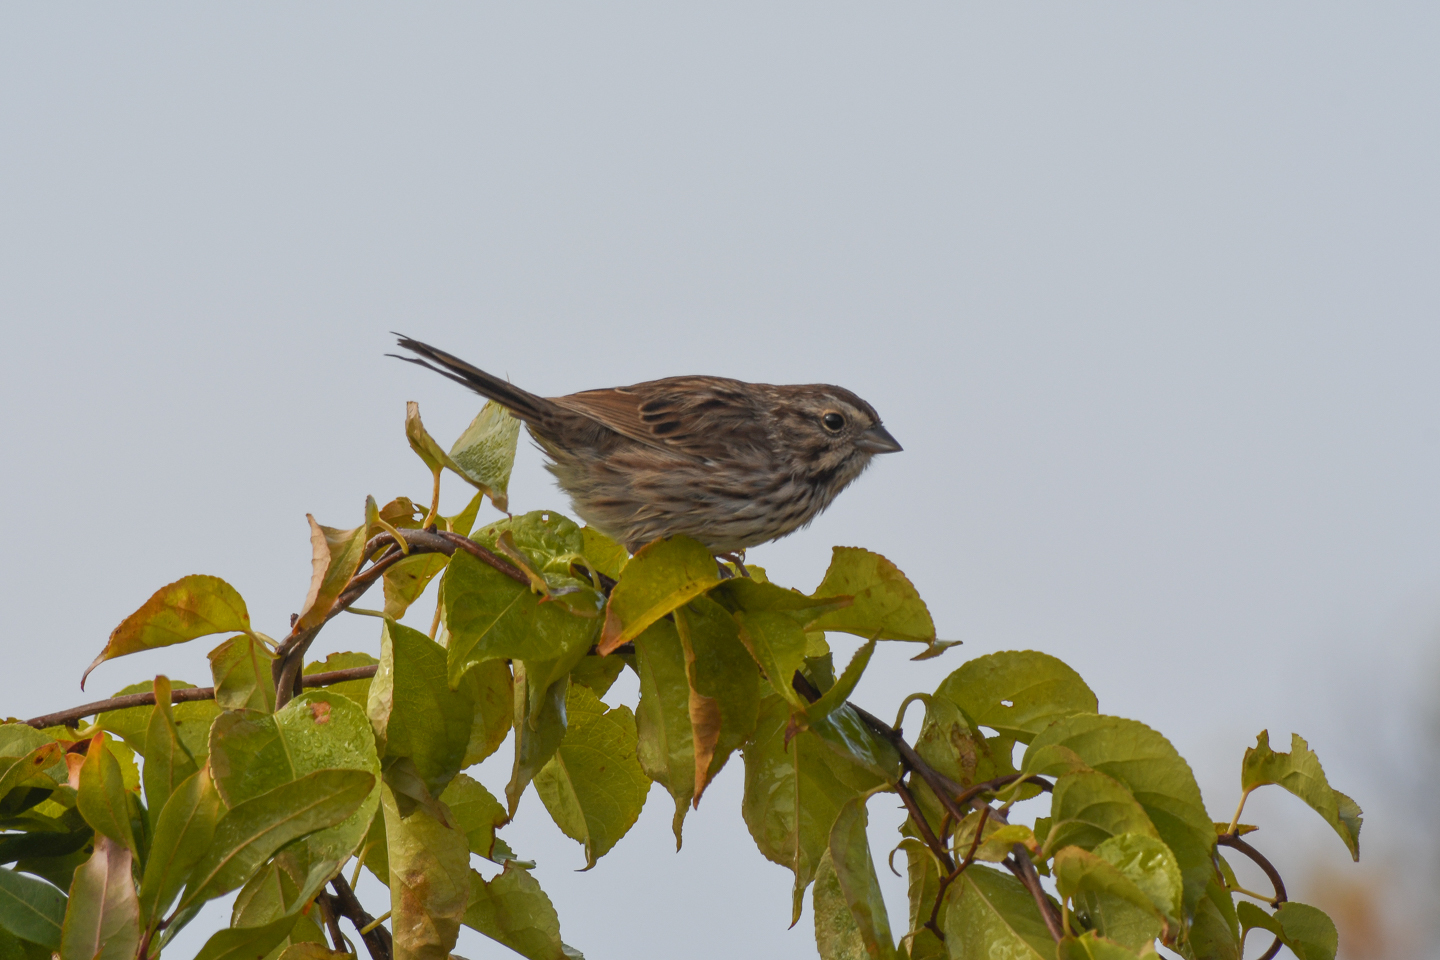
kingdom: Animalia
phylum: Chordata
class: Aves
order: Passeriformes
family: Passerellidae
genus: Melospiza
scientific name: Melospiza melodia
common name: Song sparrow
